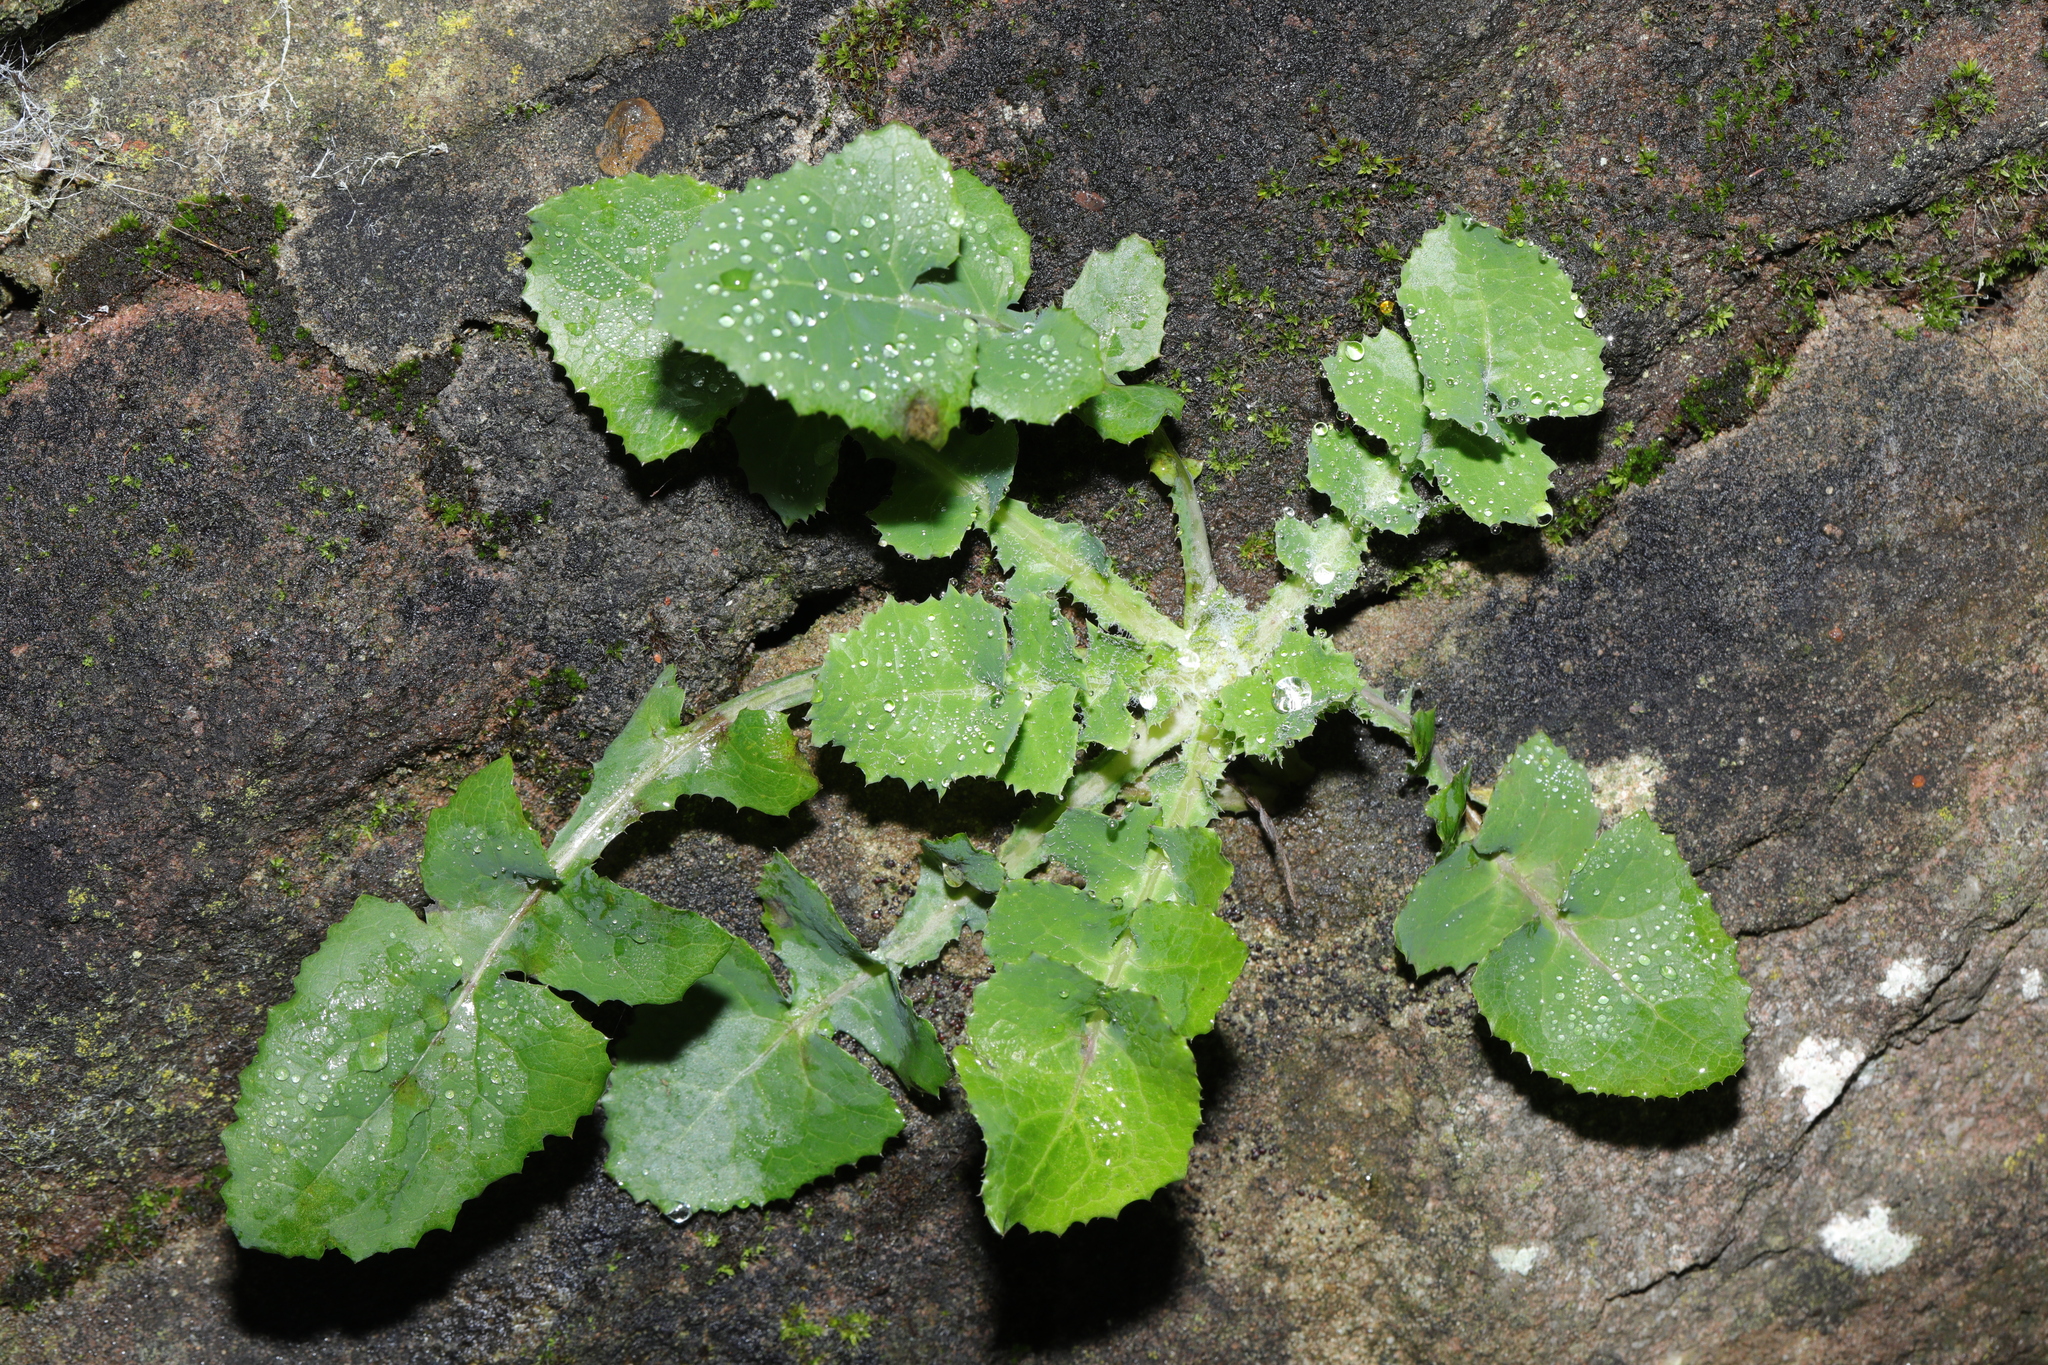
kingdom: Plantae
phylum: Tracheophyta
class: Magnoliopsida
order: Asterales
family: Asteraceae
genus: Sonchus
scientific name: Sonchus oleraceus
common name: Common sowthistle
